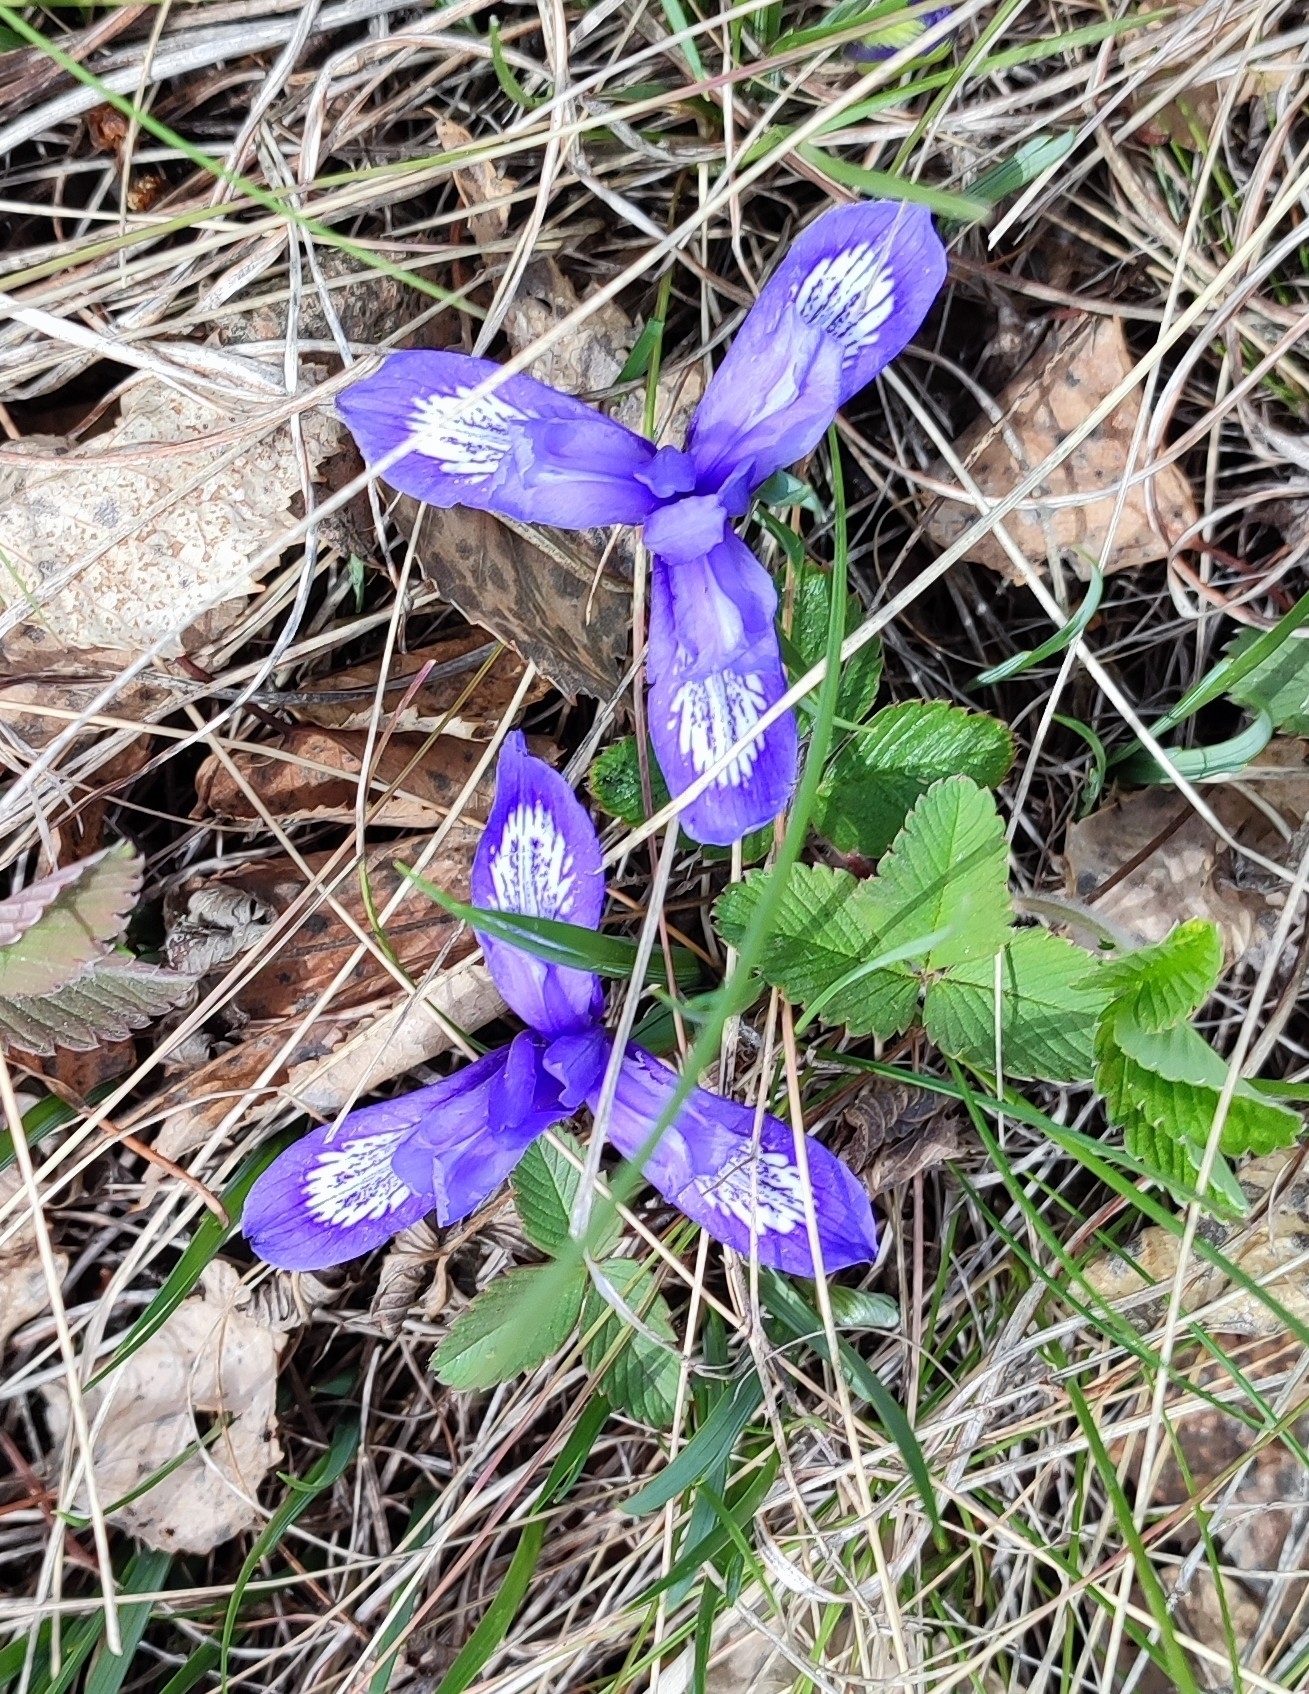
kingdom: Plantae
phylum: Tracheophyta
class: Liliopsida
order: Asparagales
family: Iridaceae
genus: Iris
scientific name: Iris ruthenica
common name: Purple-bract iris
